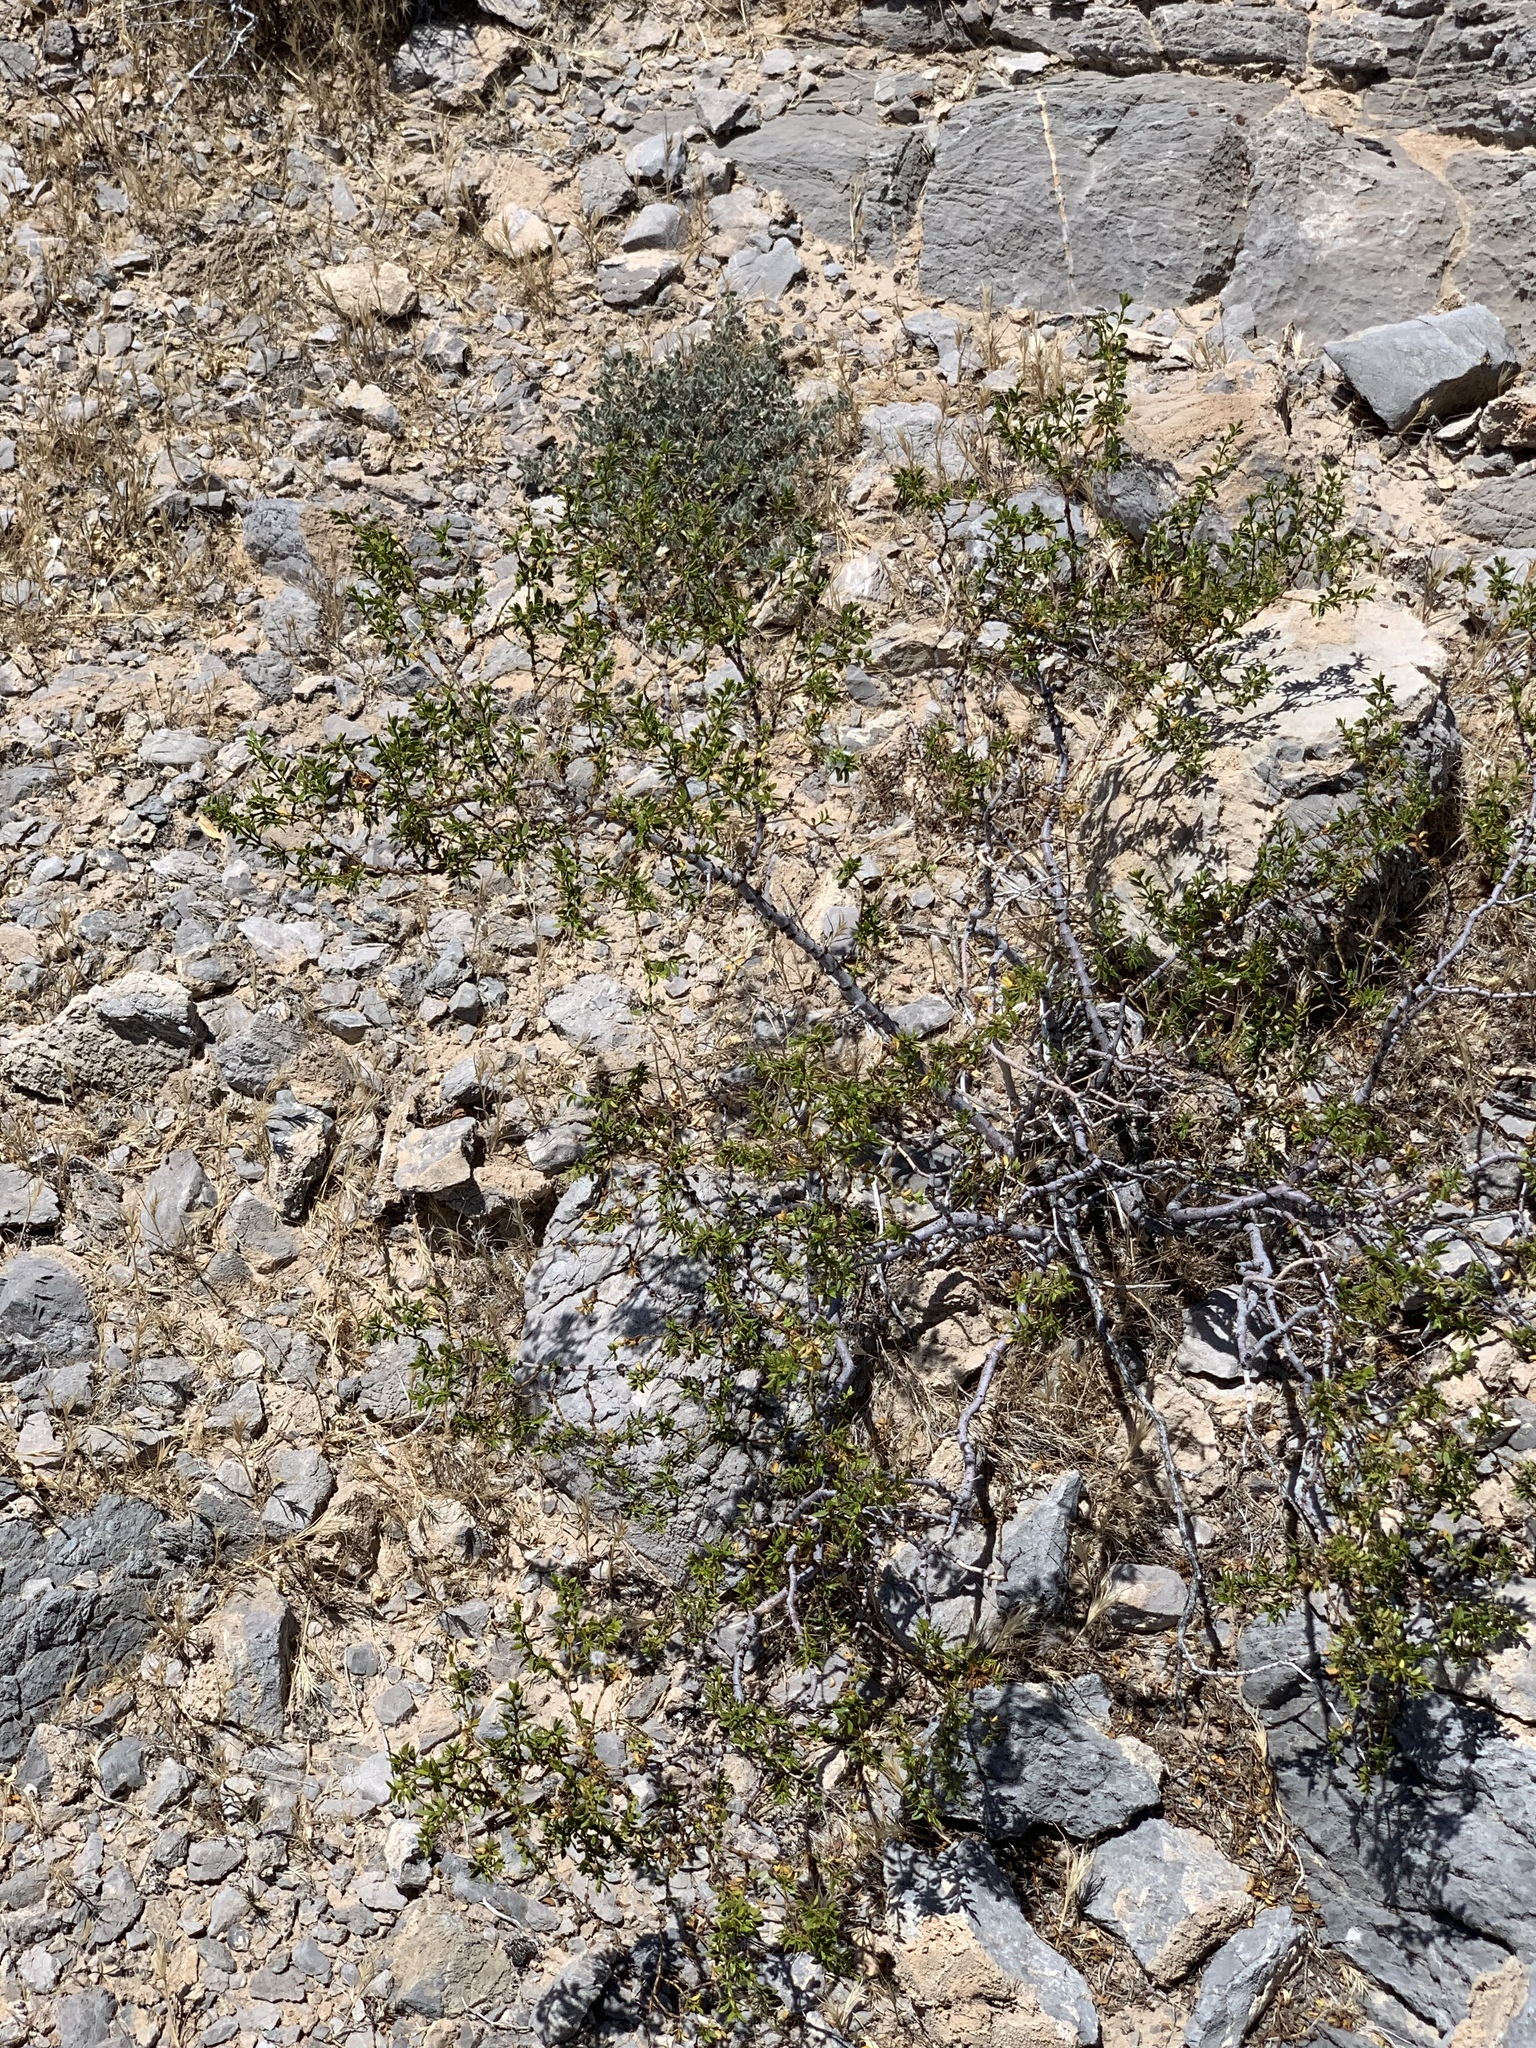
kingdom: Plantae
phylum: Tracheophyta
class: Magnoliopsida
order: Zygophyllales
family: Zygophyllaceae
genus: Larrea
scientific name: Larrea tridentata
